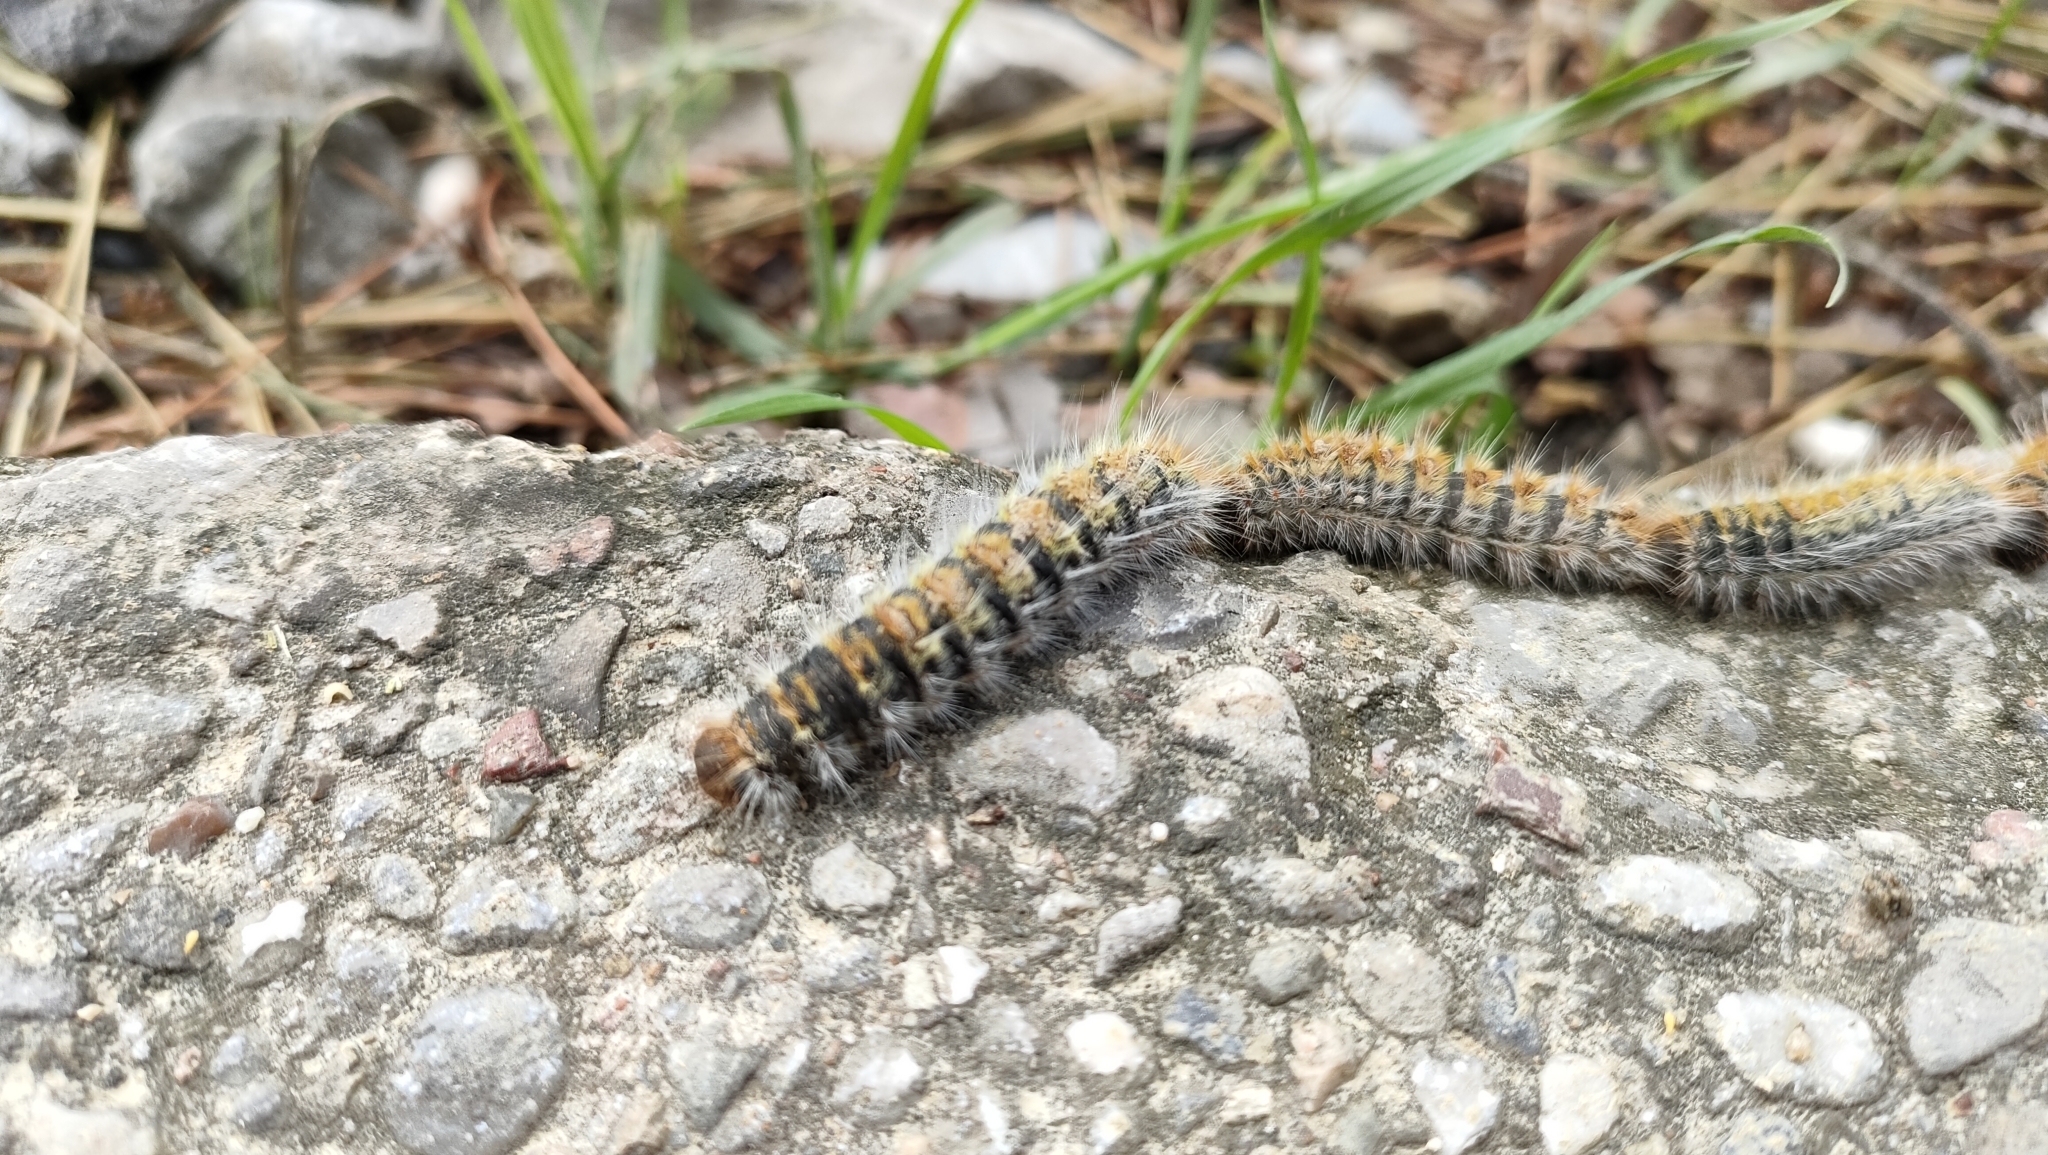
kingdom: Animalia
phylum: Arthropoda
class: Insecta
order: Lepidoptera
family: Notodontidae
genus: Thaumetopoea
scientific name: Thaumetopoea pityocampa
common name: Pine processionary
